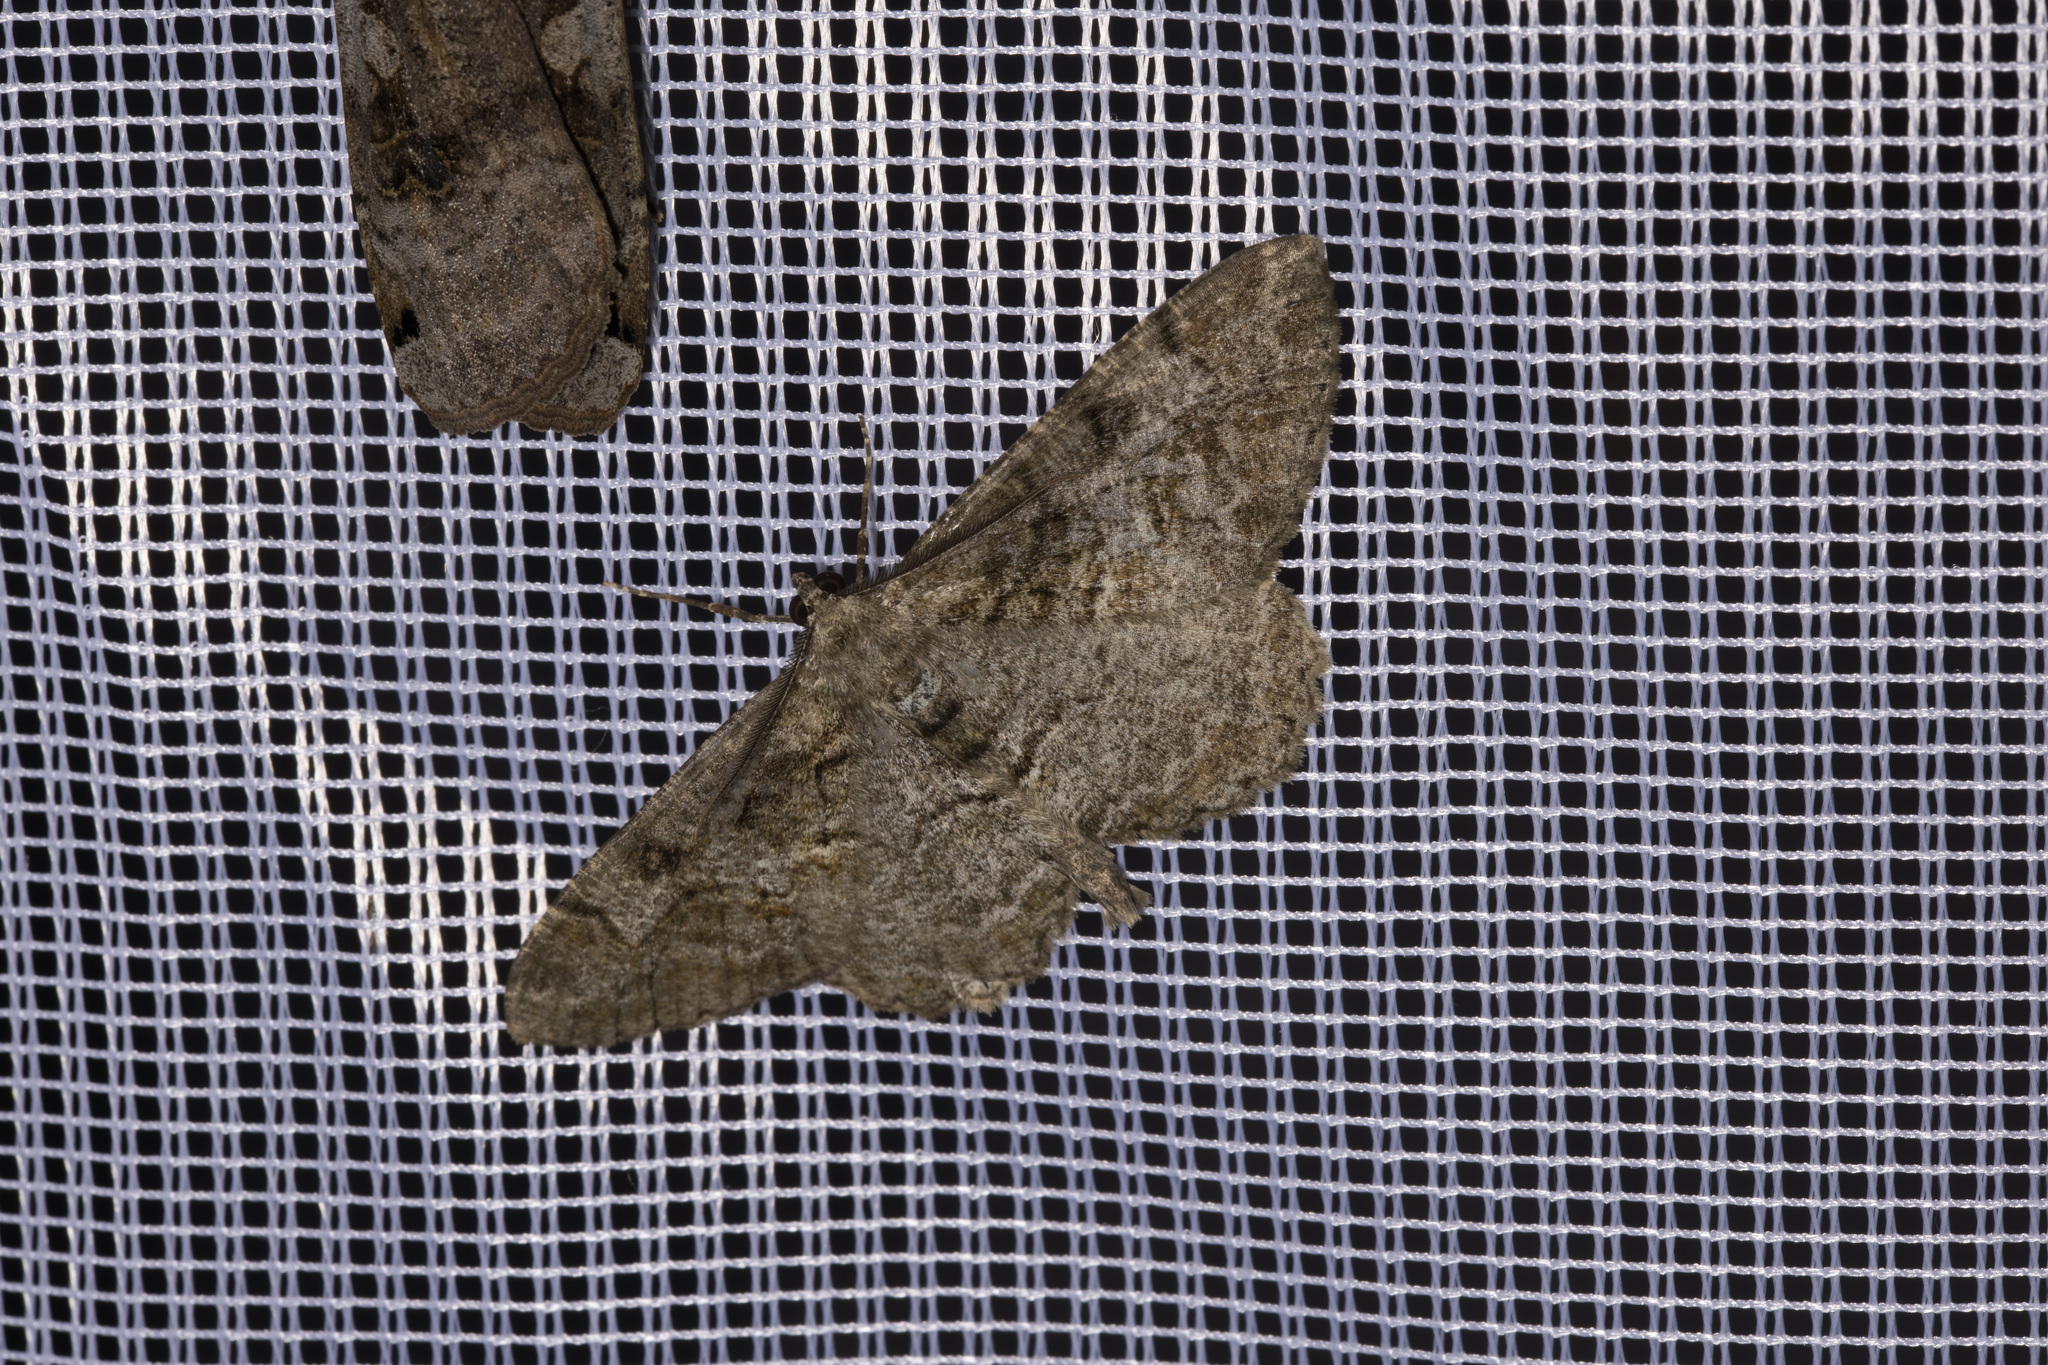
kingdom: Animalia
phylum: Arthropoda
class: Insecta
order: Lepidoptera
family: Geometridae
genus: Alcis
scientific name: Alcis repandata
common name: Mottled beauty
